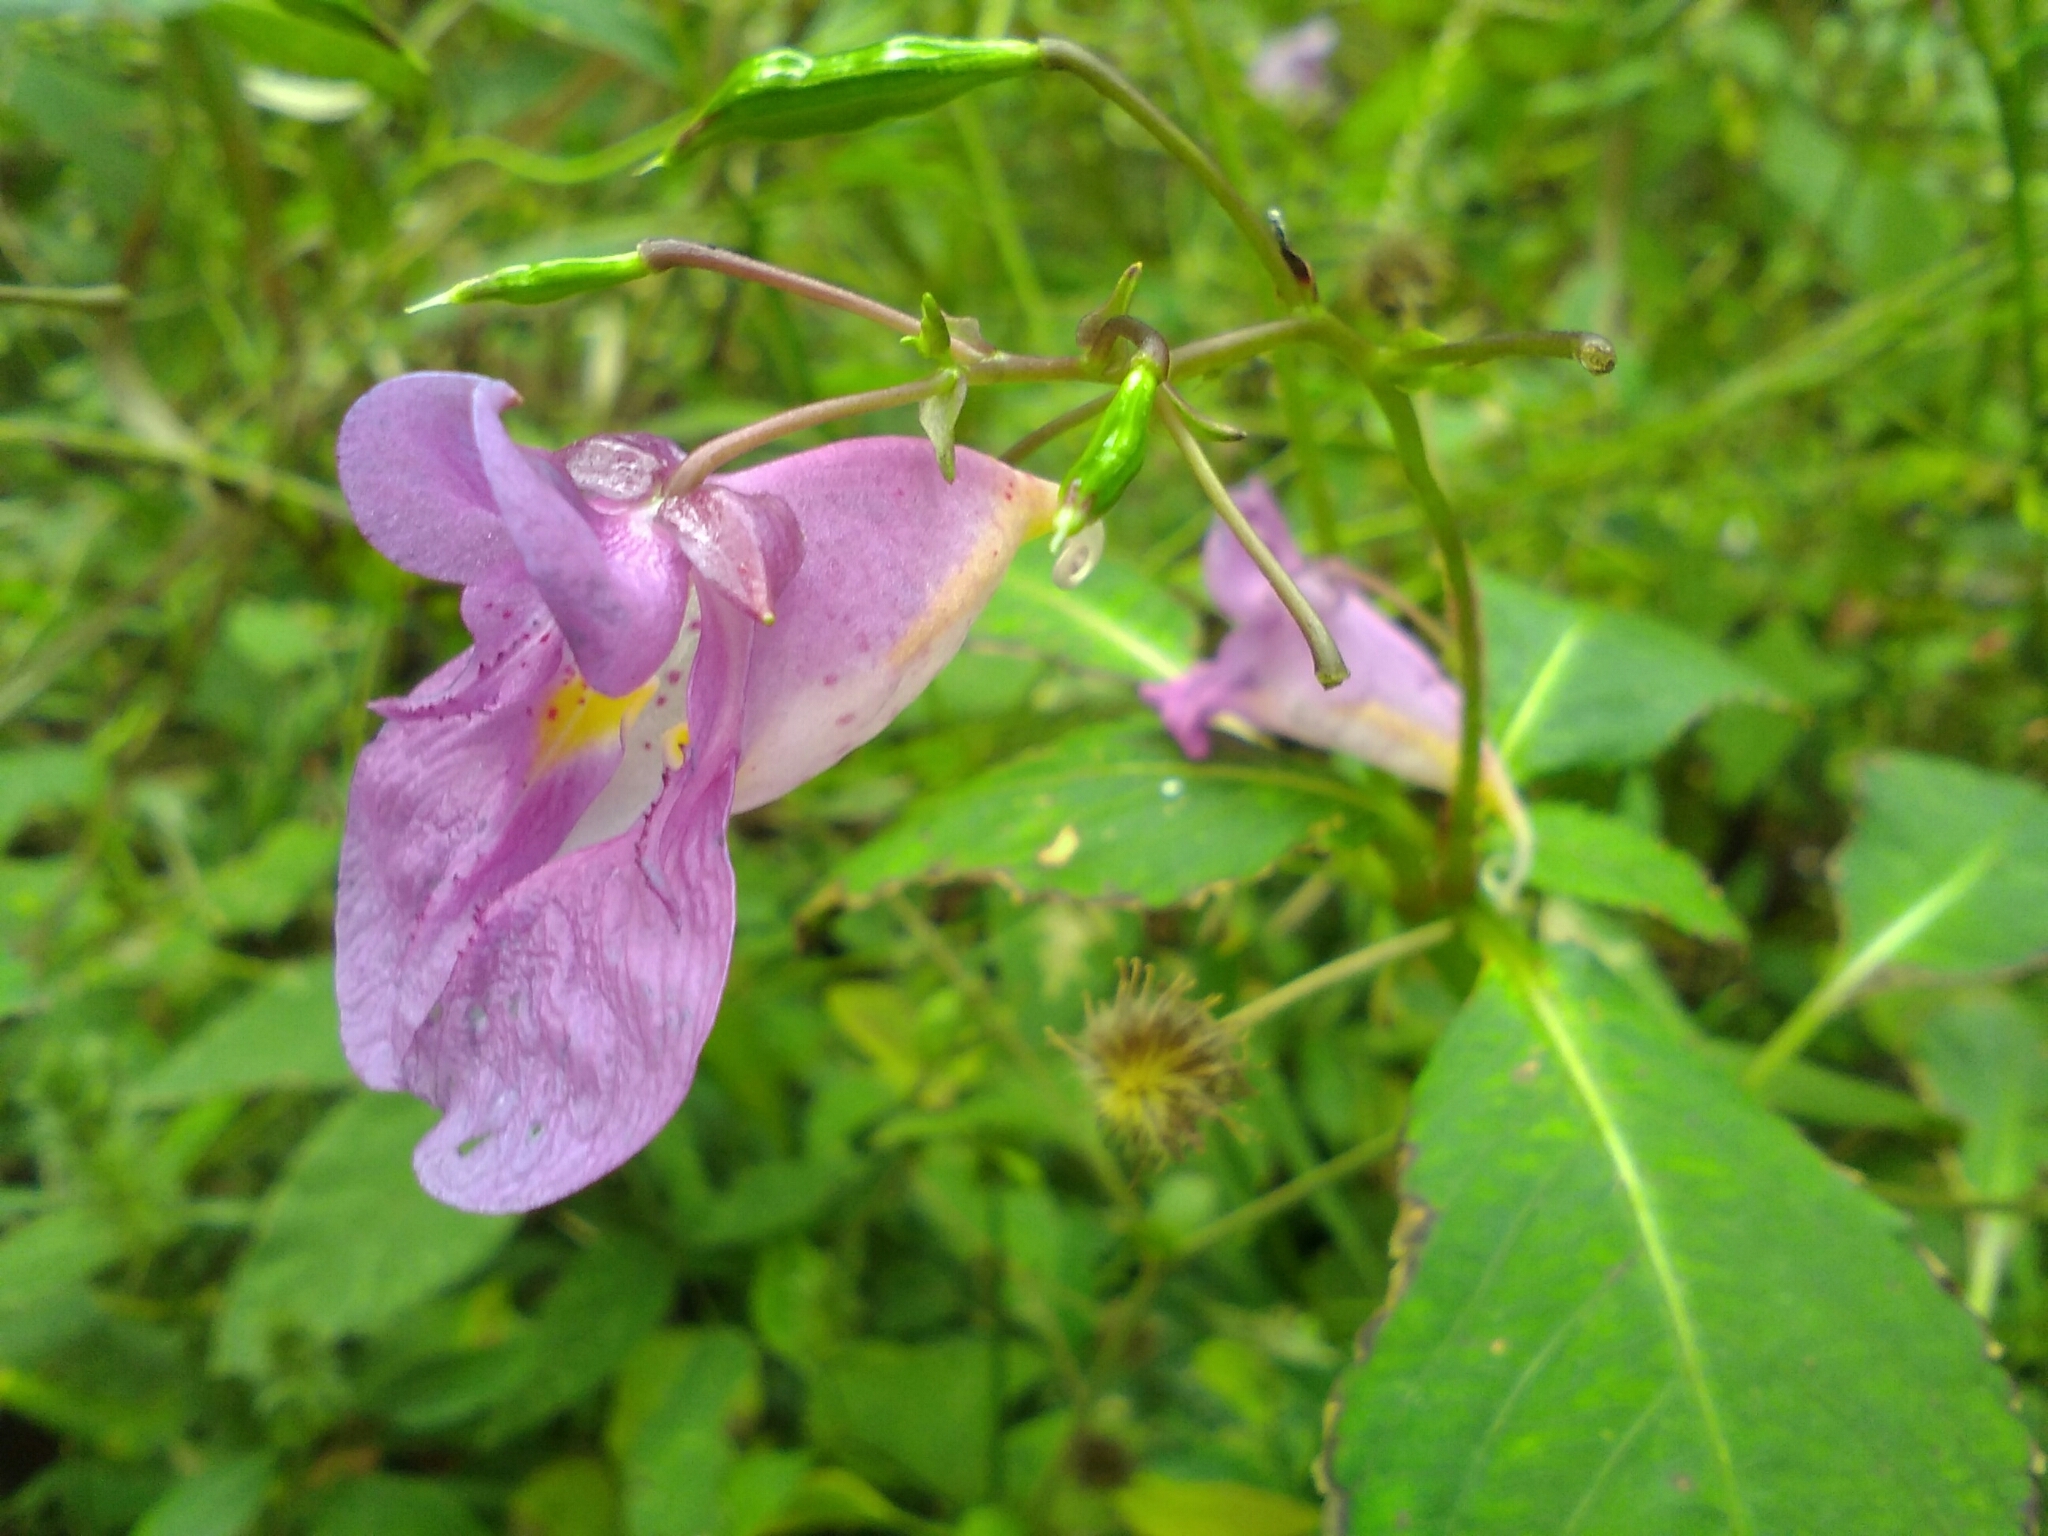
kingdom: Plantae
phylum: Tracheophyta
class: Magnoliopsida
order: Ericales
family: Balsaminaceae
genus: Impatiens
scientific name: Impatiens textorii
